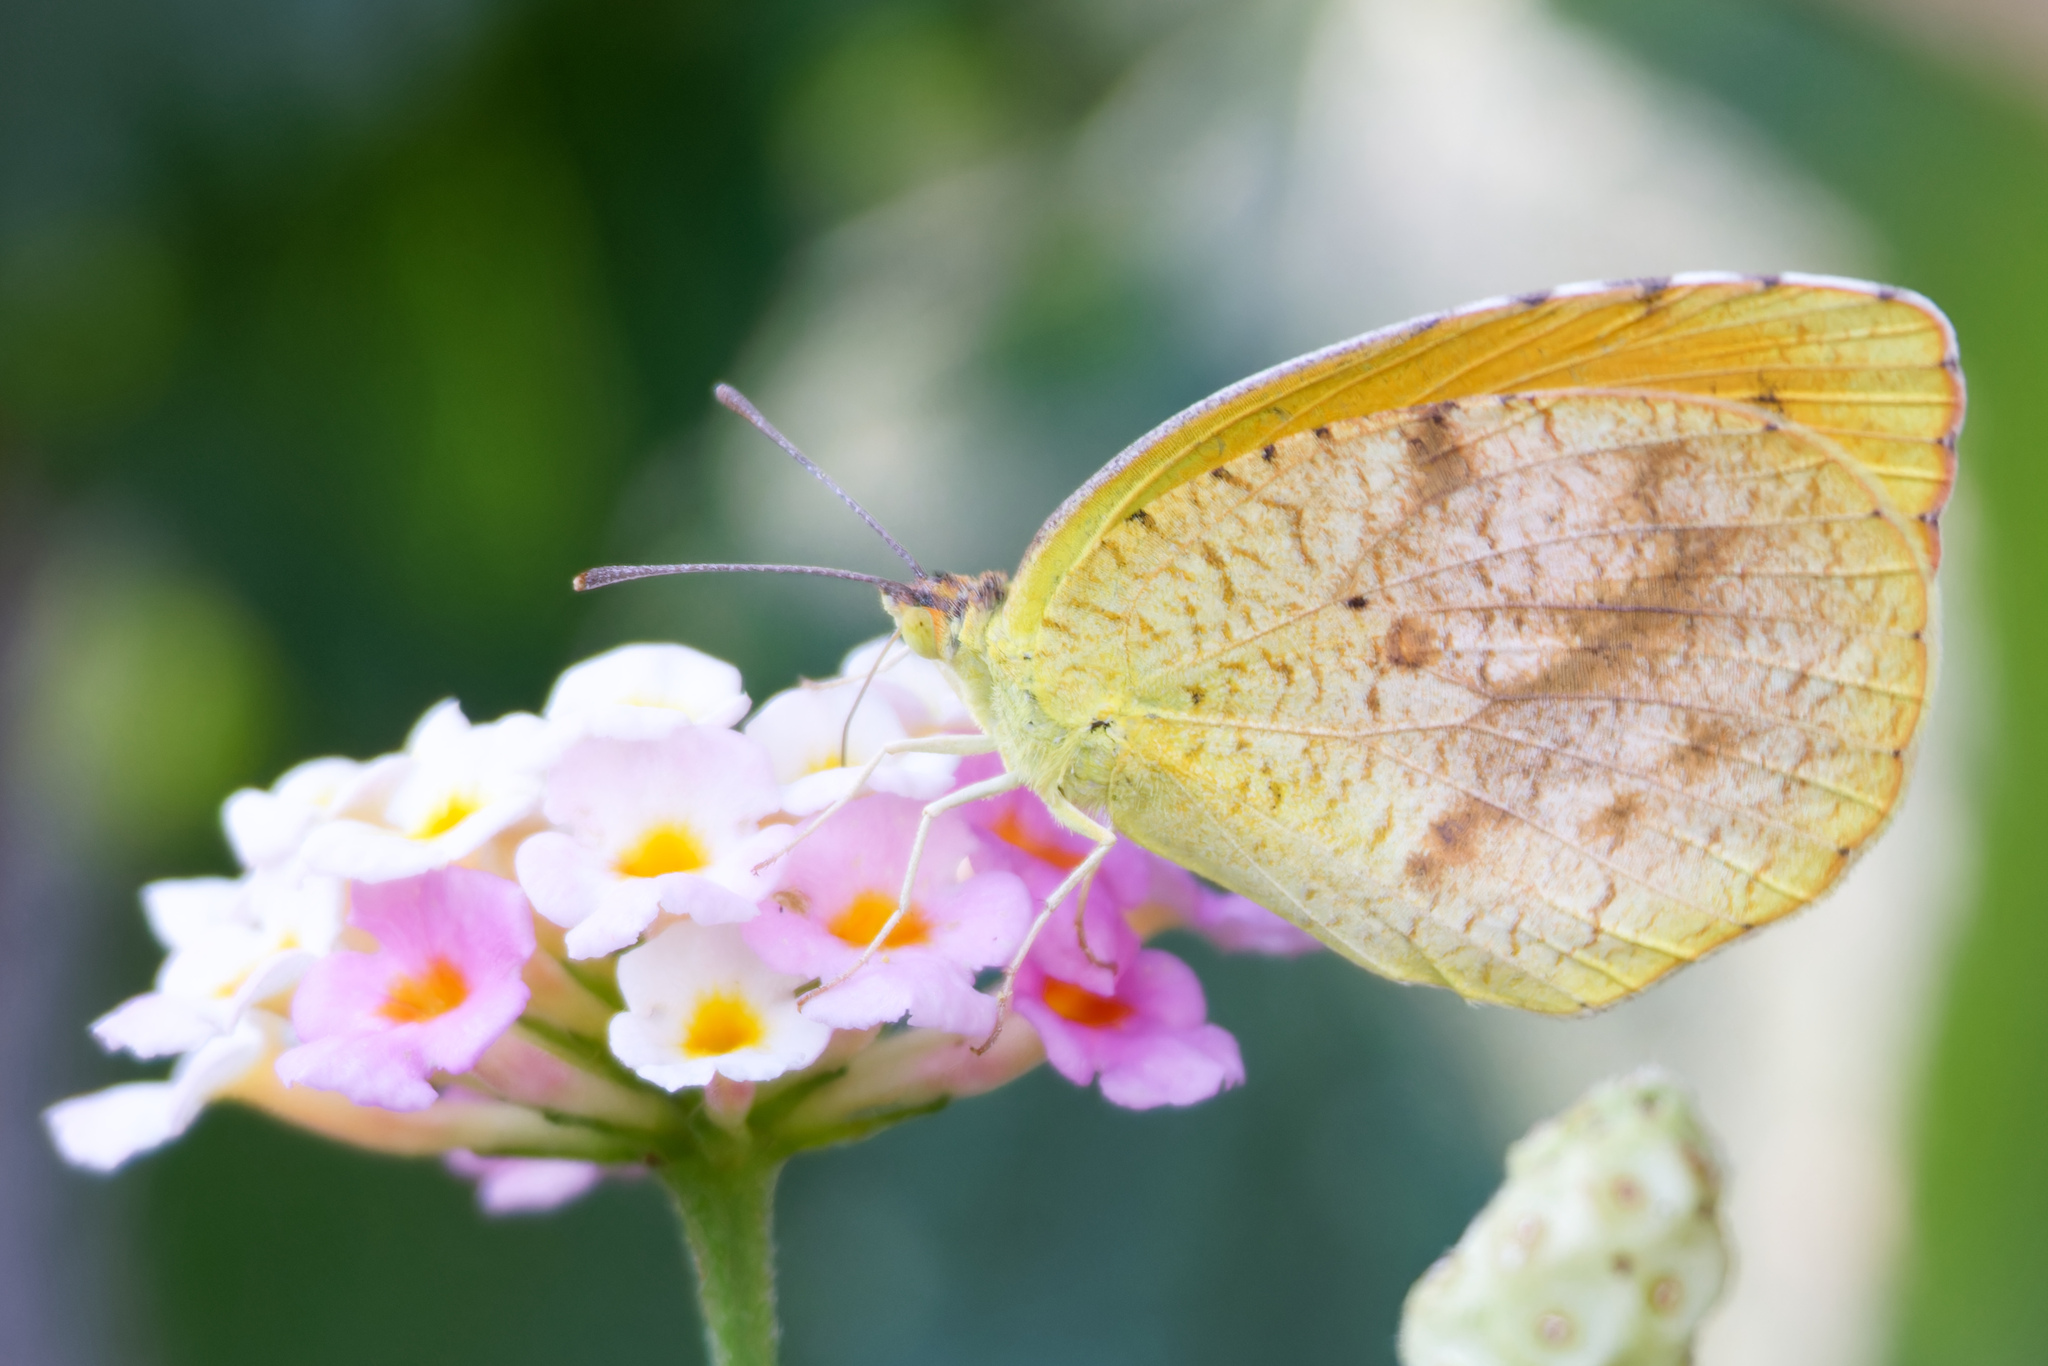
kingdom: Animalia
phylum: Arthropoda
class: Insecta
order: Lepidoptera
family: Pieridae
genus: Abaeis
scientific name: Abaeis nicippe
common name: Sleepy orange
